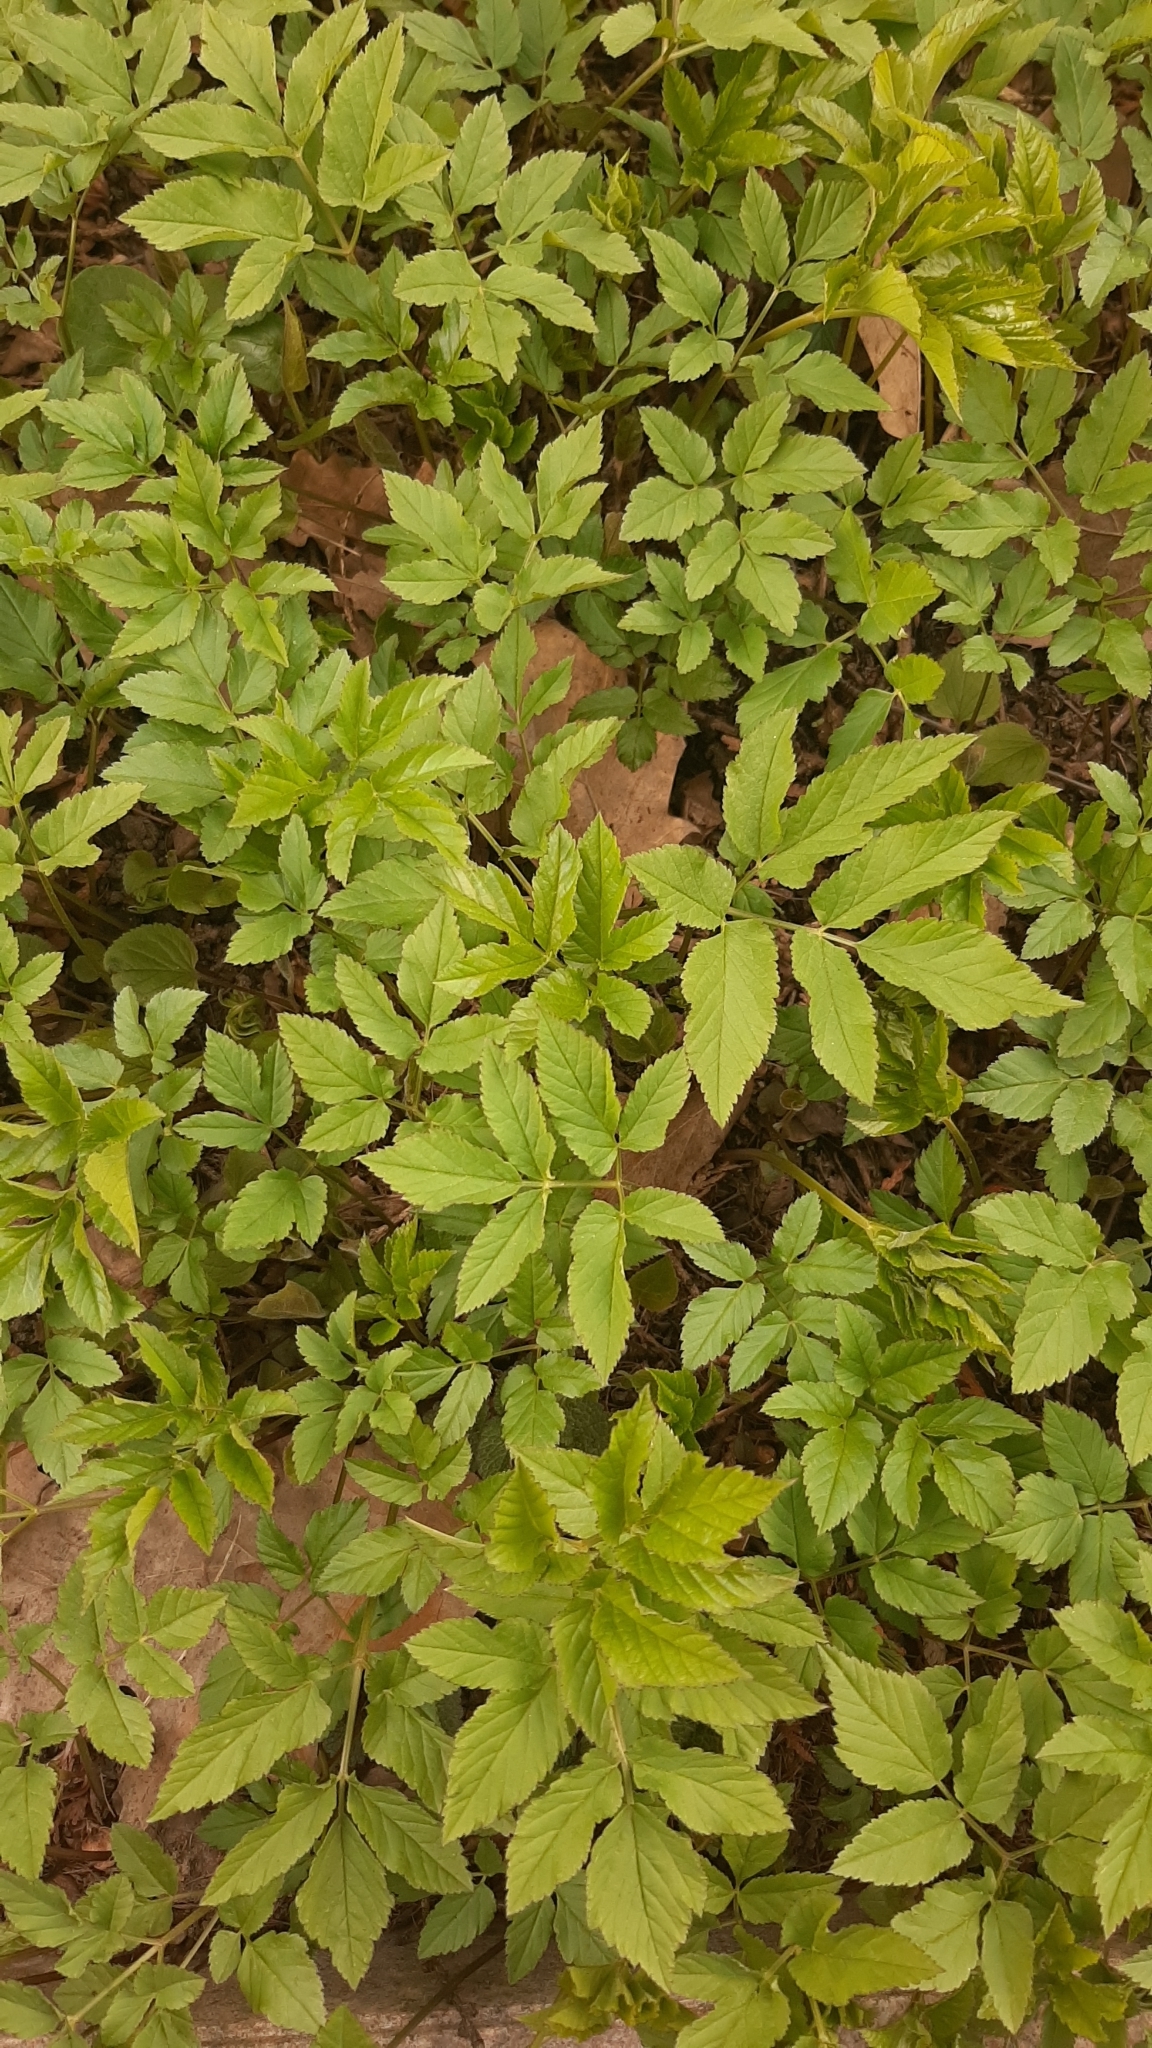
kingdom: Plantae
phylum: Tracheophyta
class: Magnoliopsida
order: Apiales
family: Apiaceae
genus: Aegopodium
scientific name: Aegopodium podagraria
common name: Ground-elder
